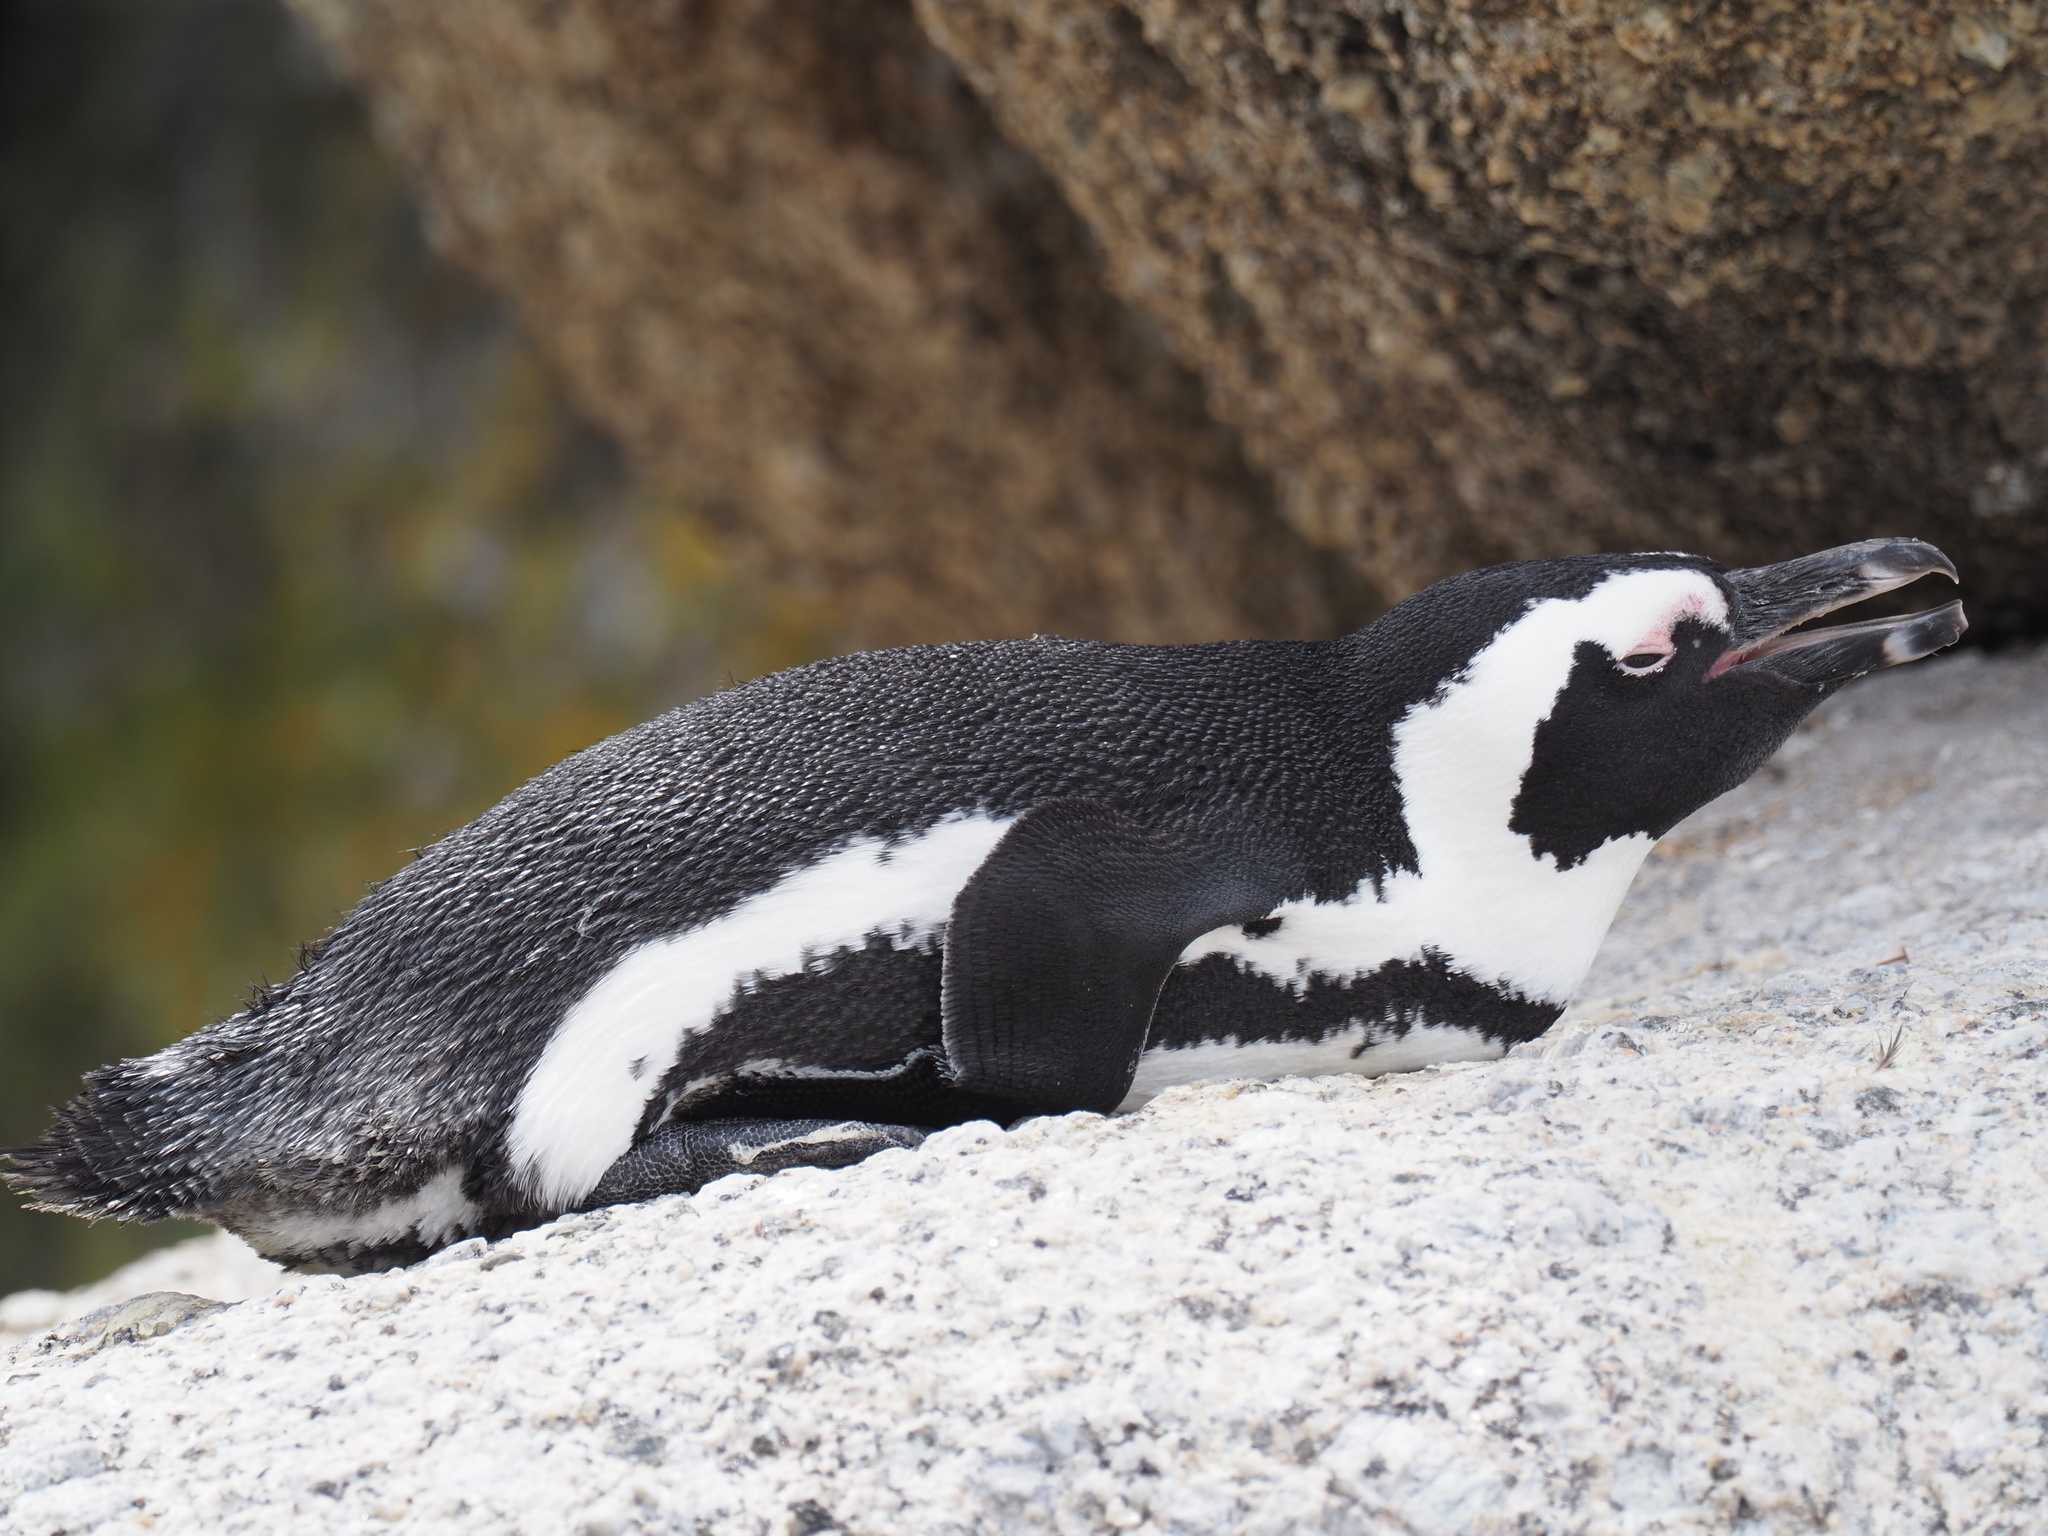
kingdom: Animalia
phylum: Chordata
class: Aves
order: Sphenisciformes
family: Spheniscidae
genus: Spheniscus
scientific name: Spheniscus demersus
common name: African penguin
